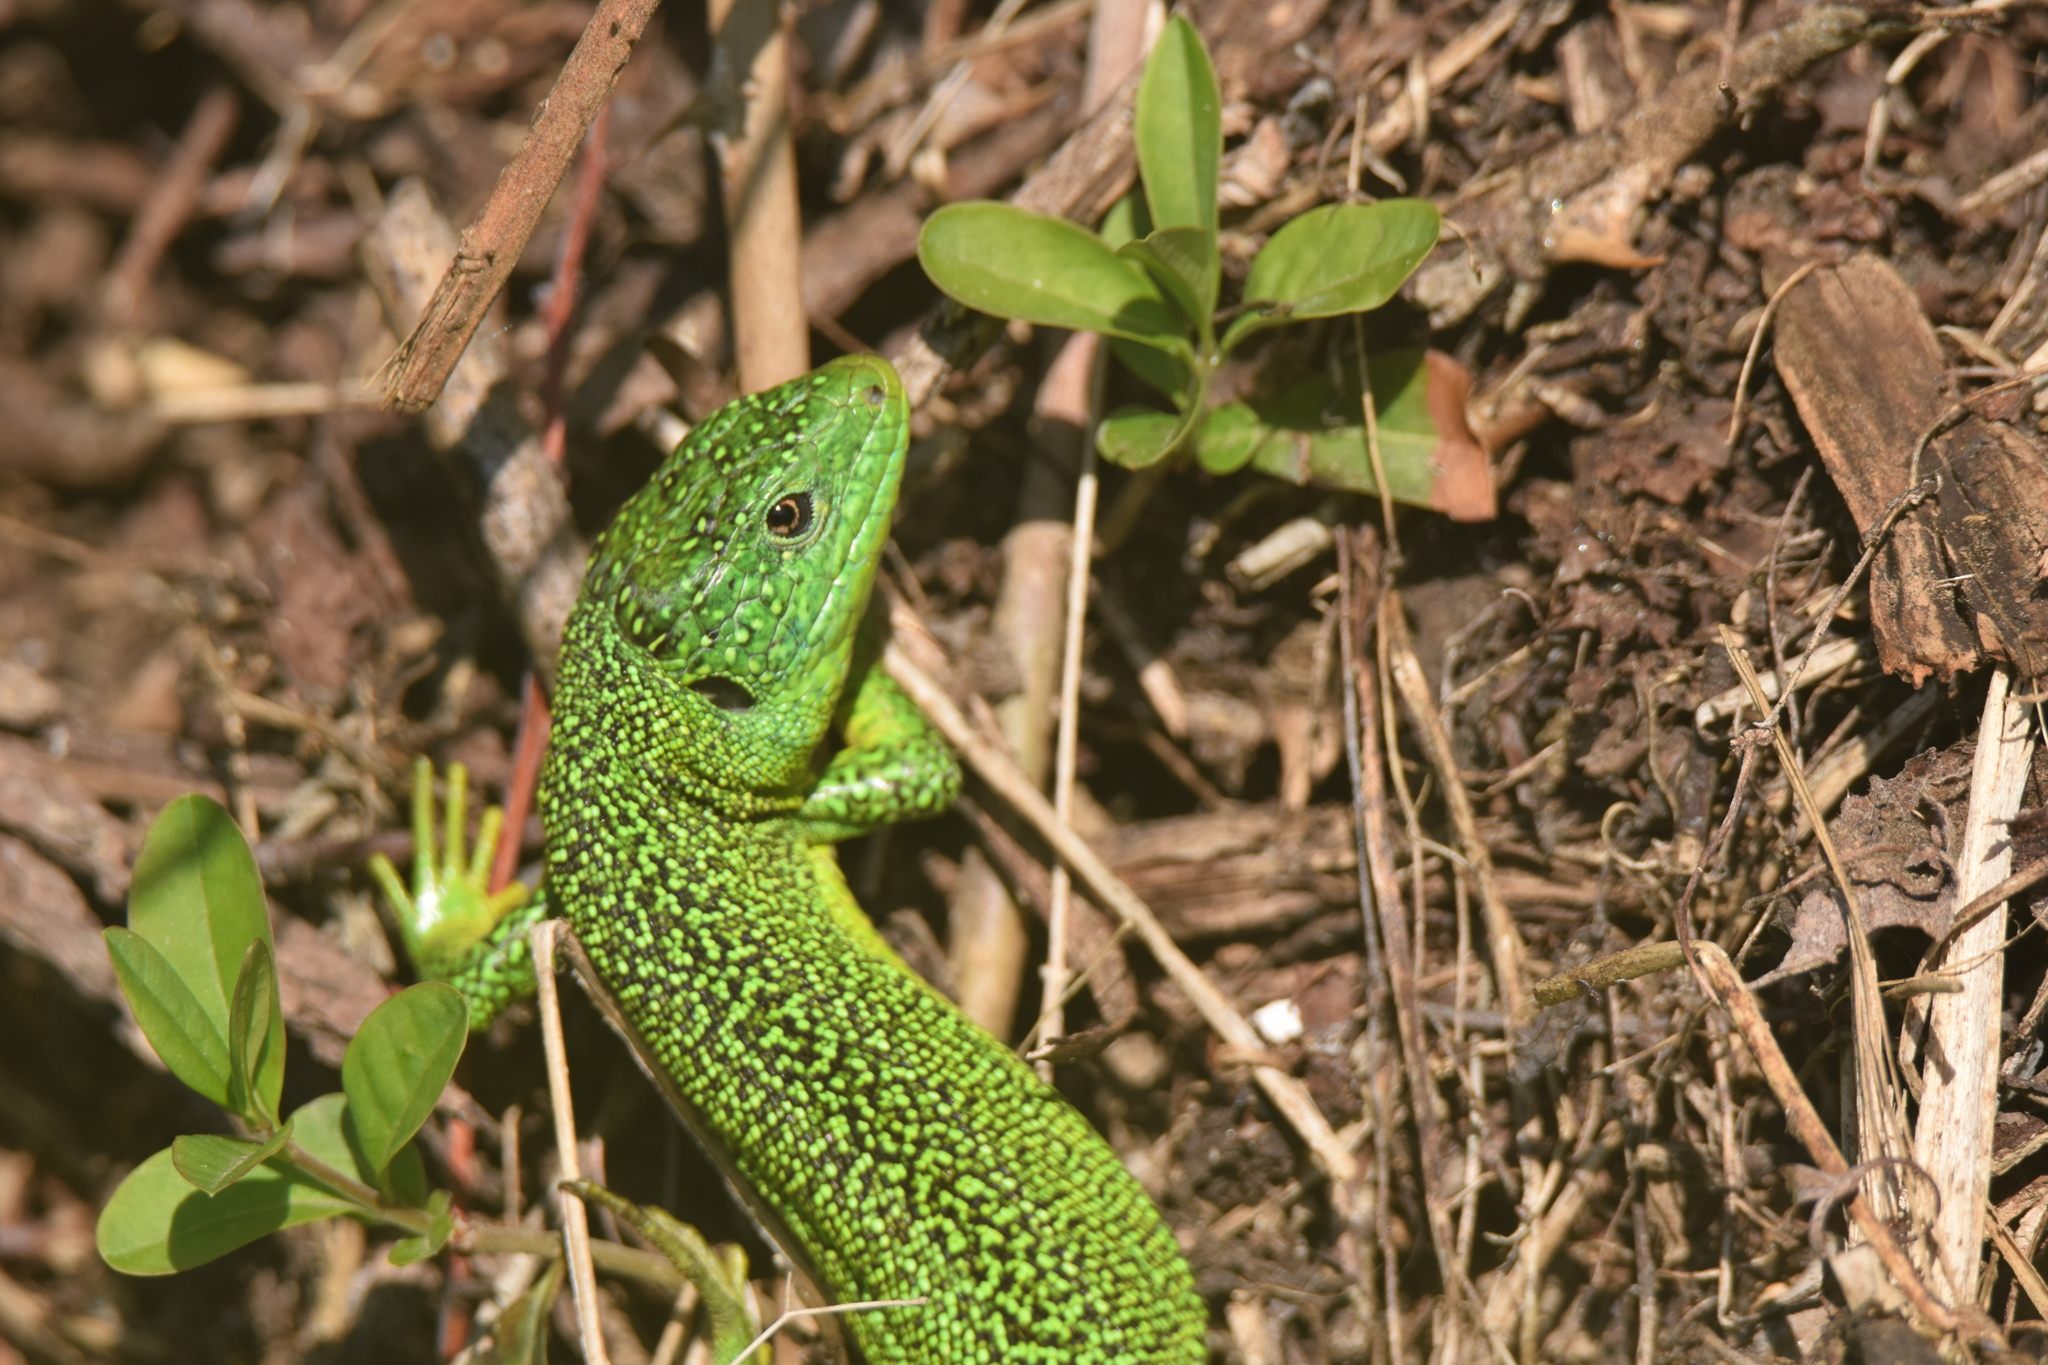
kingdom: Animalia
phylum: Chordata
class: Squamata
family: Lacertidae
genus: Lacerta
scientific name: Lacerta bilineata
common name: Western green lizard
